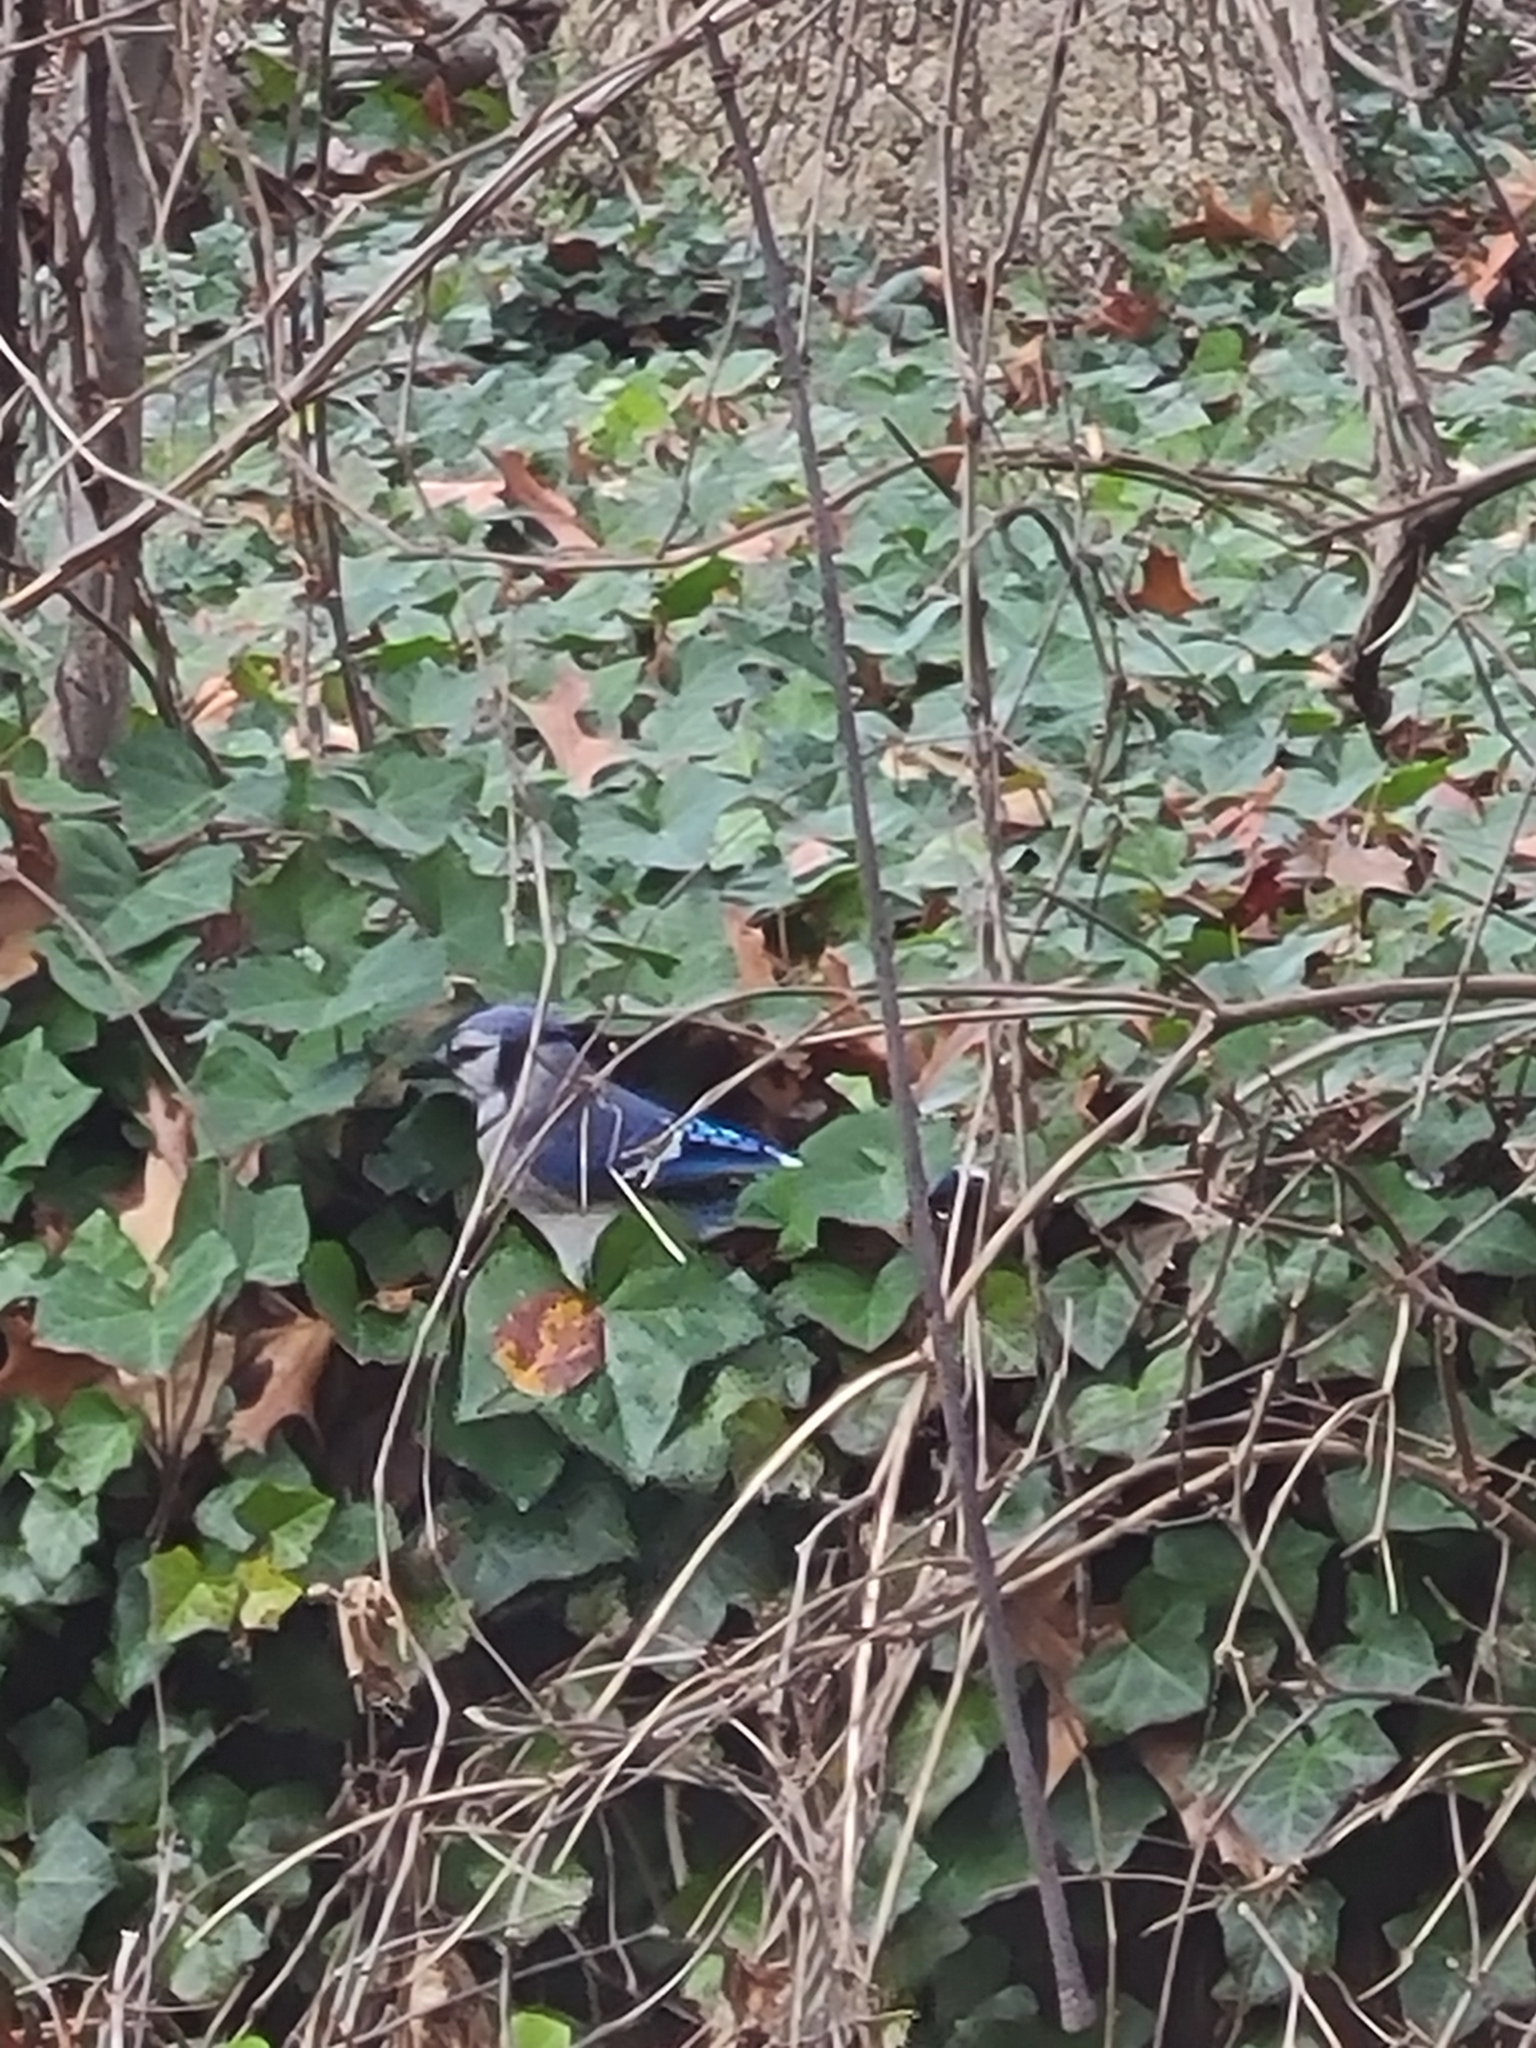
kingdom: Animalia
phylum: Chordata
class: Aves
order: Passeriformes
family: Corvidae
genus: Cyanocitta
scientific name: Cyanocitta cristata
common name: Blue jay
